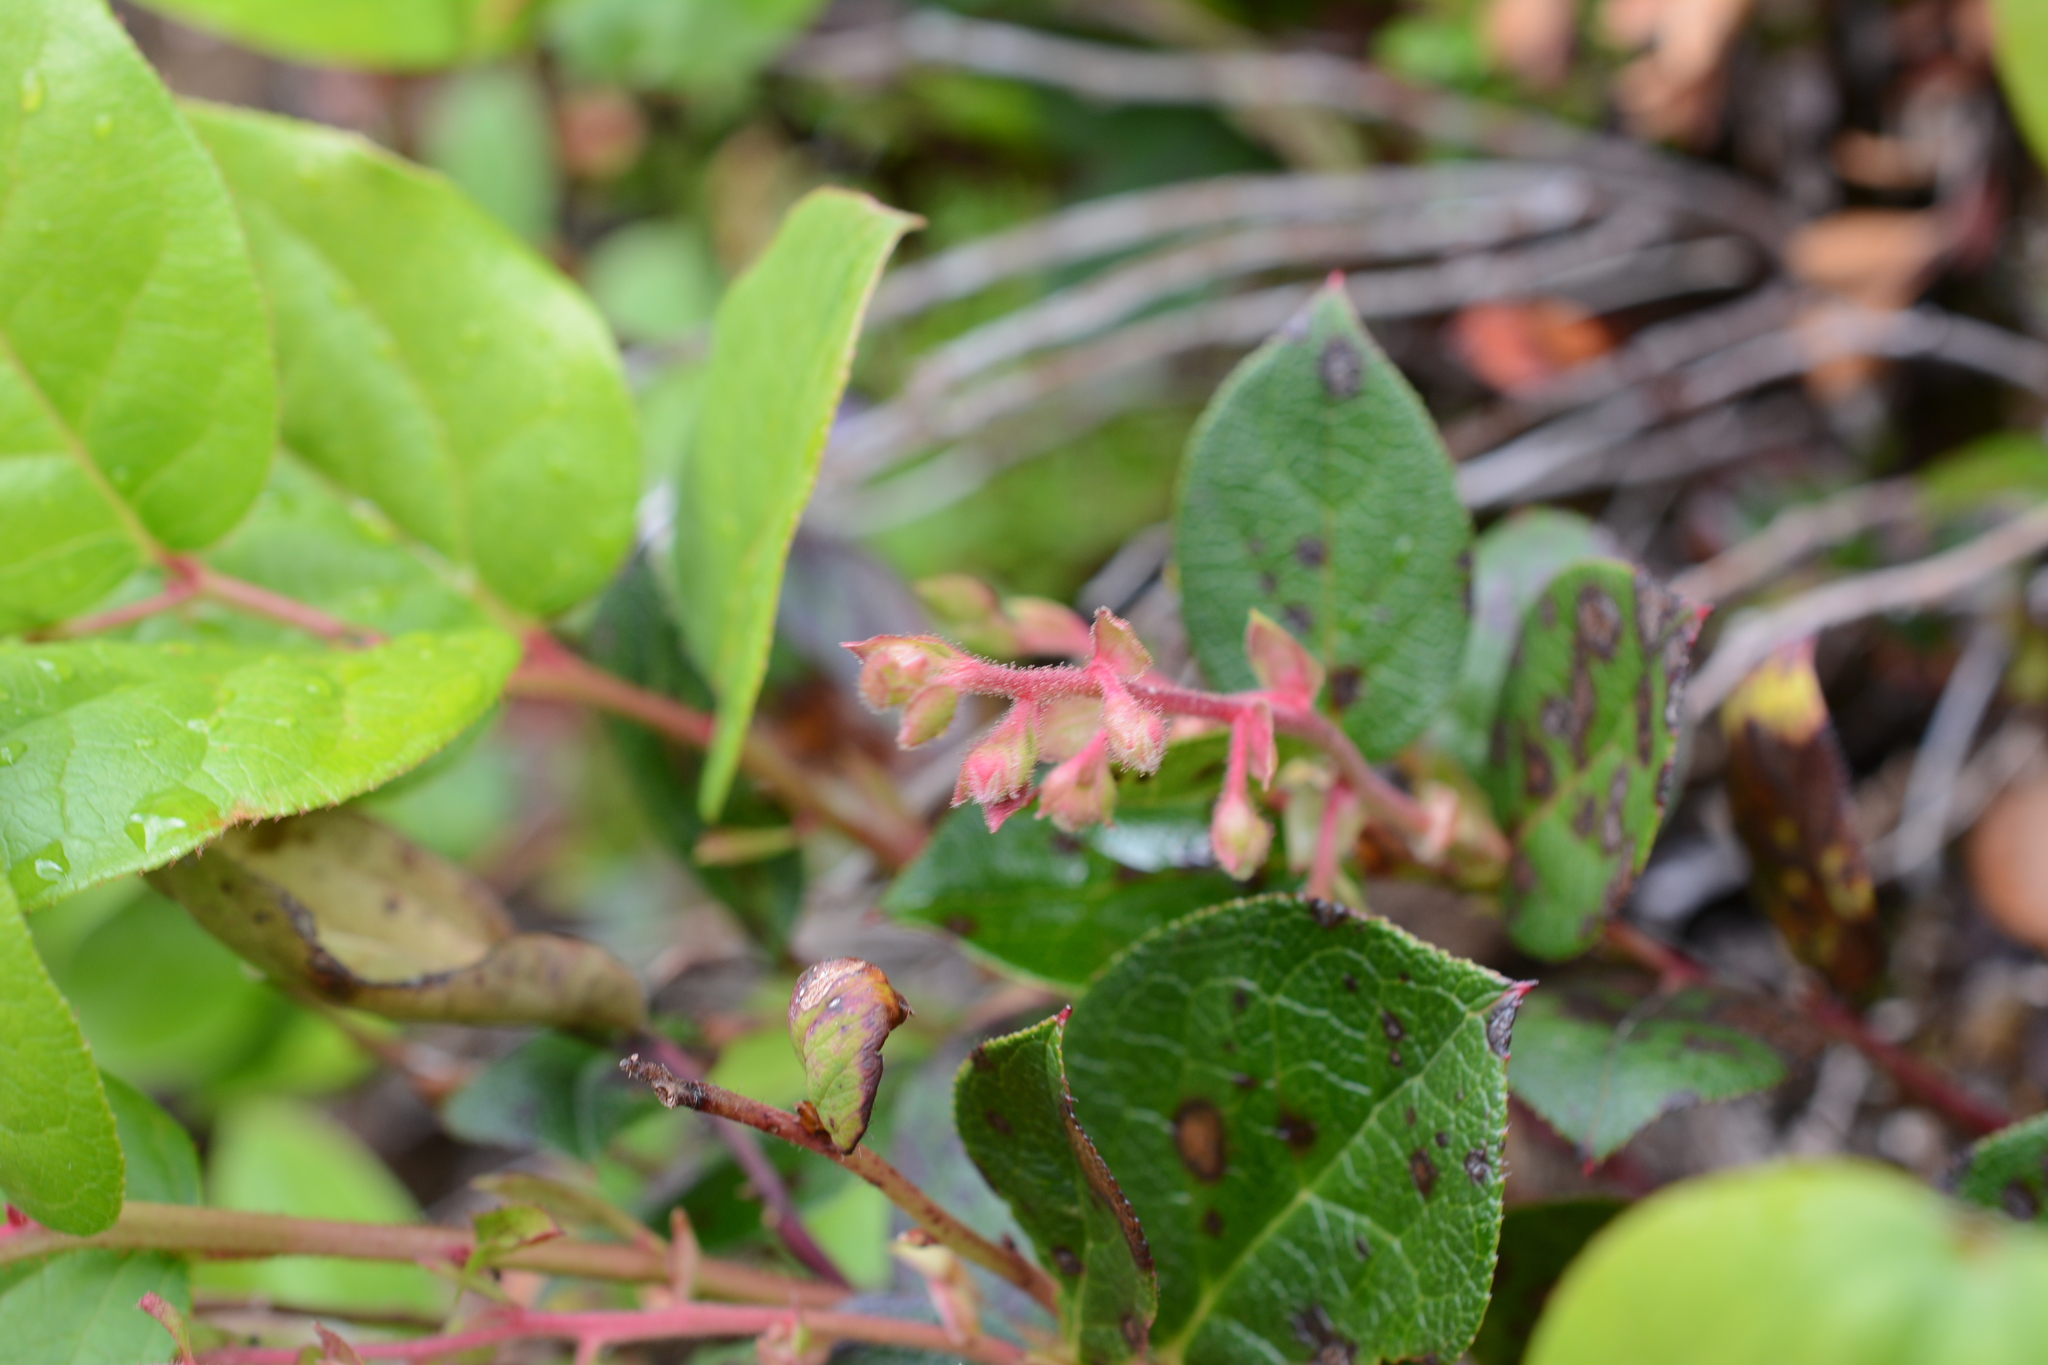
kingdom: Plantae
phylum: Tracheophyta
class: Magnoliopsida
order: Ericales
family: Ericaceae
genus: Gaultheria
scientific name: Gaultheria shallon
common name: Shallon
